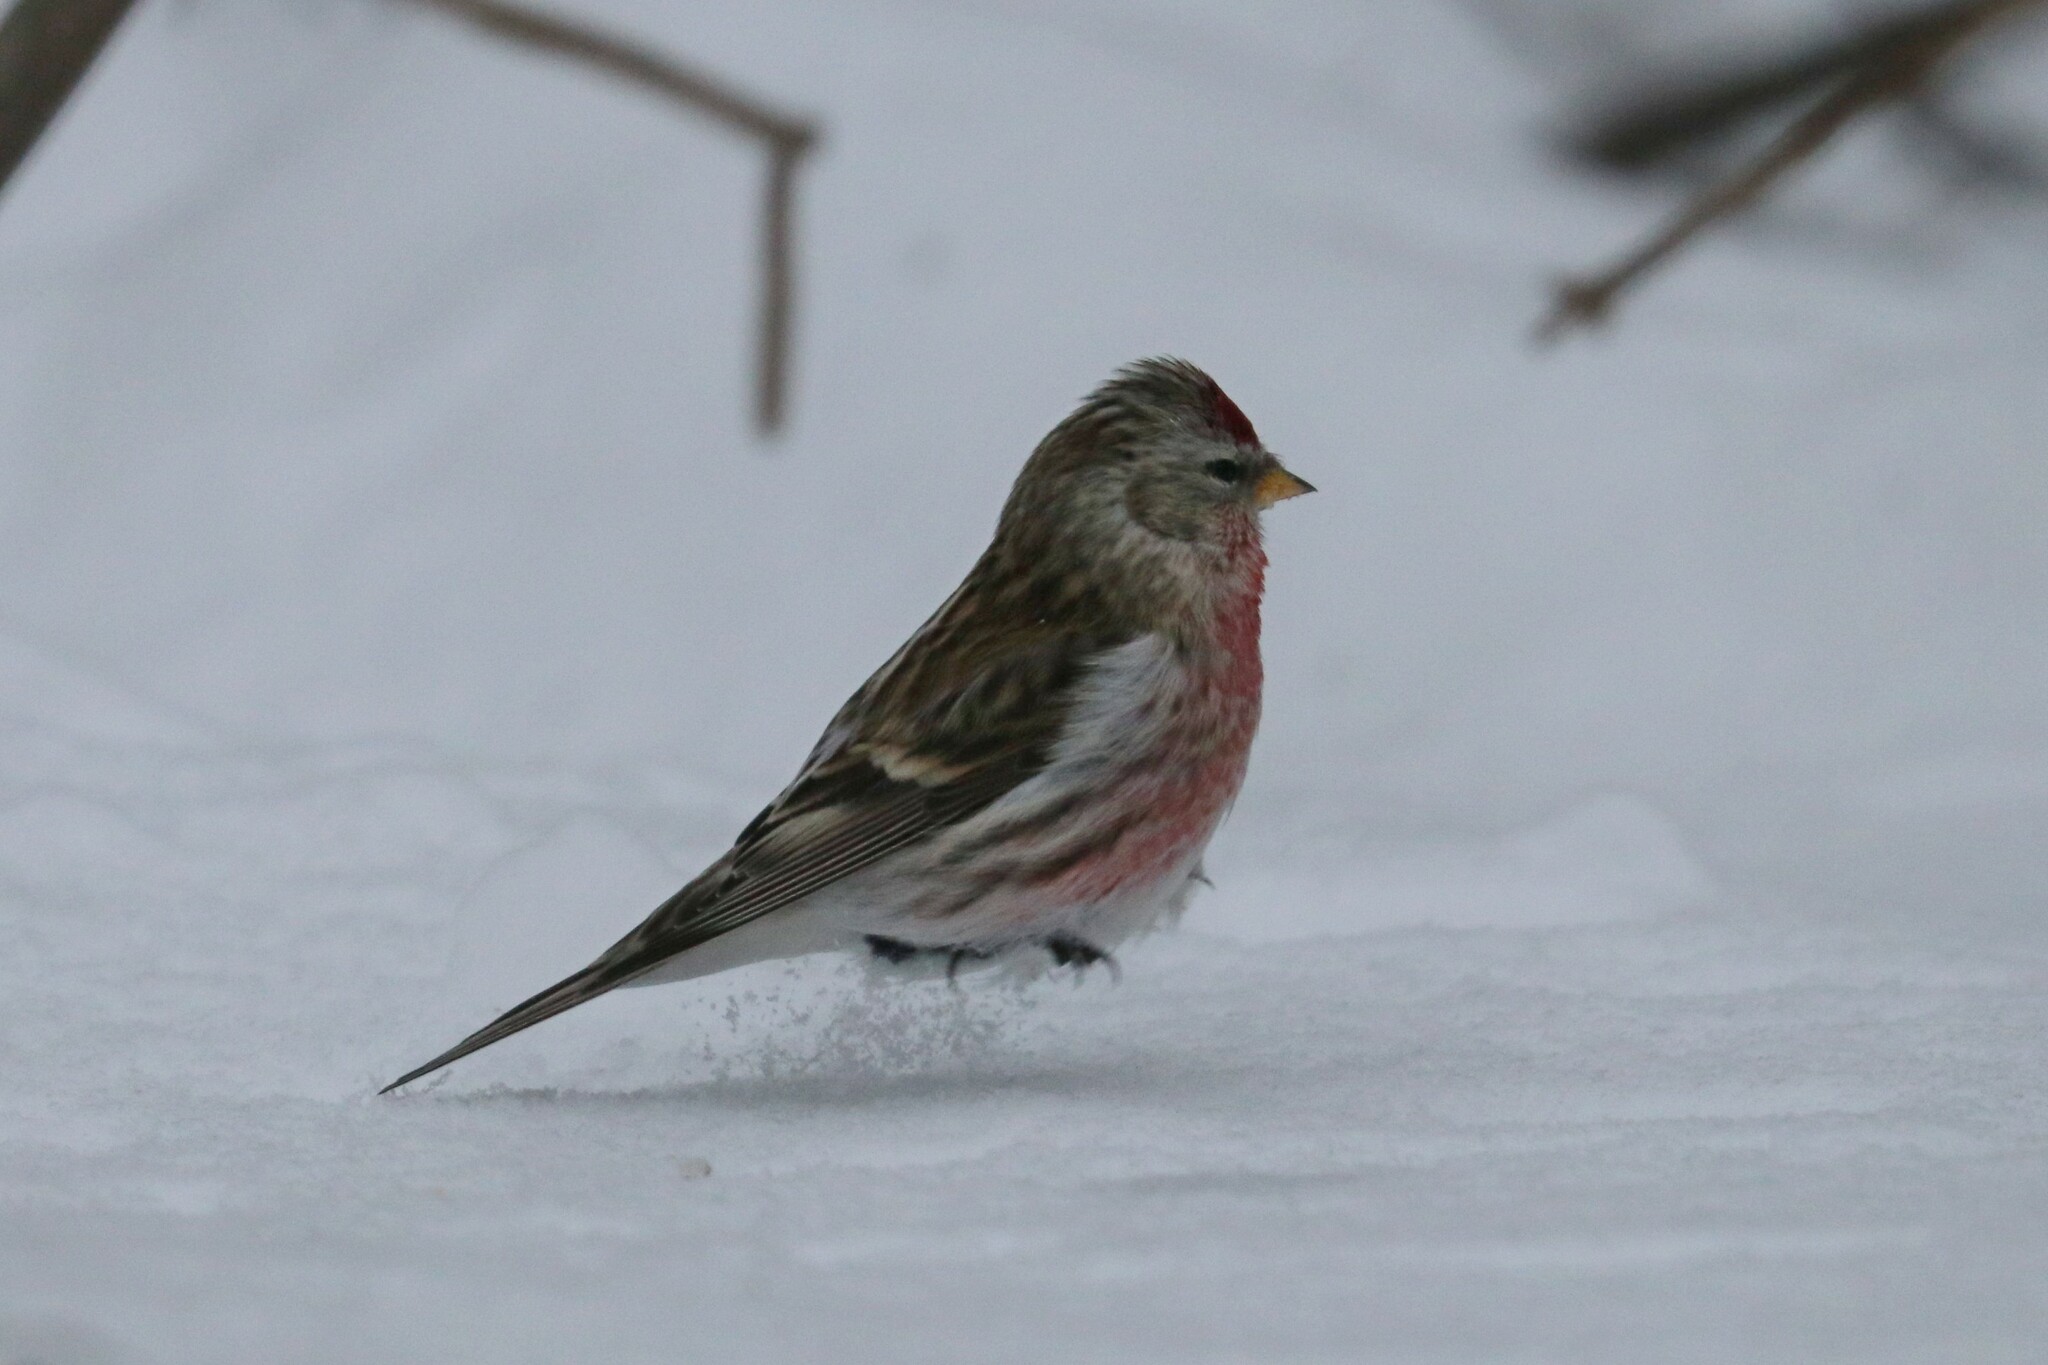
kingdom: Animalia
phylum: Chordata
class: Aves
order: Passeriformes
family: Fringillidae
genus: Acanthis
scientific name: Acanthis flammea
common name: Common redpoll
